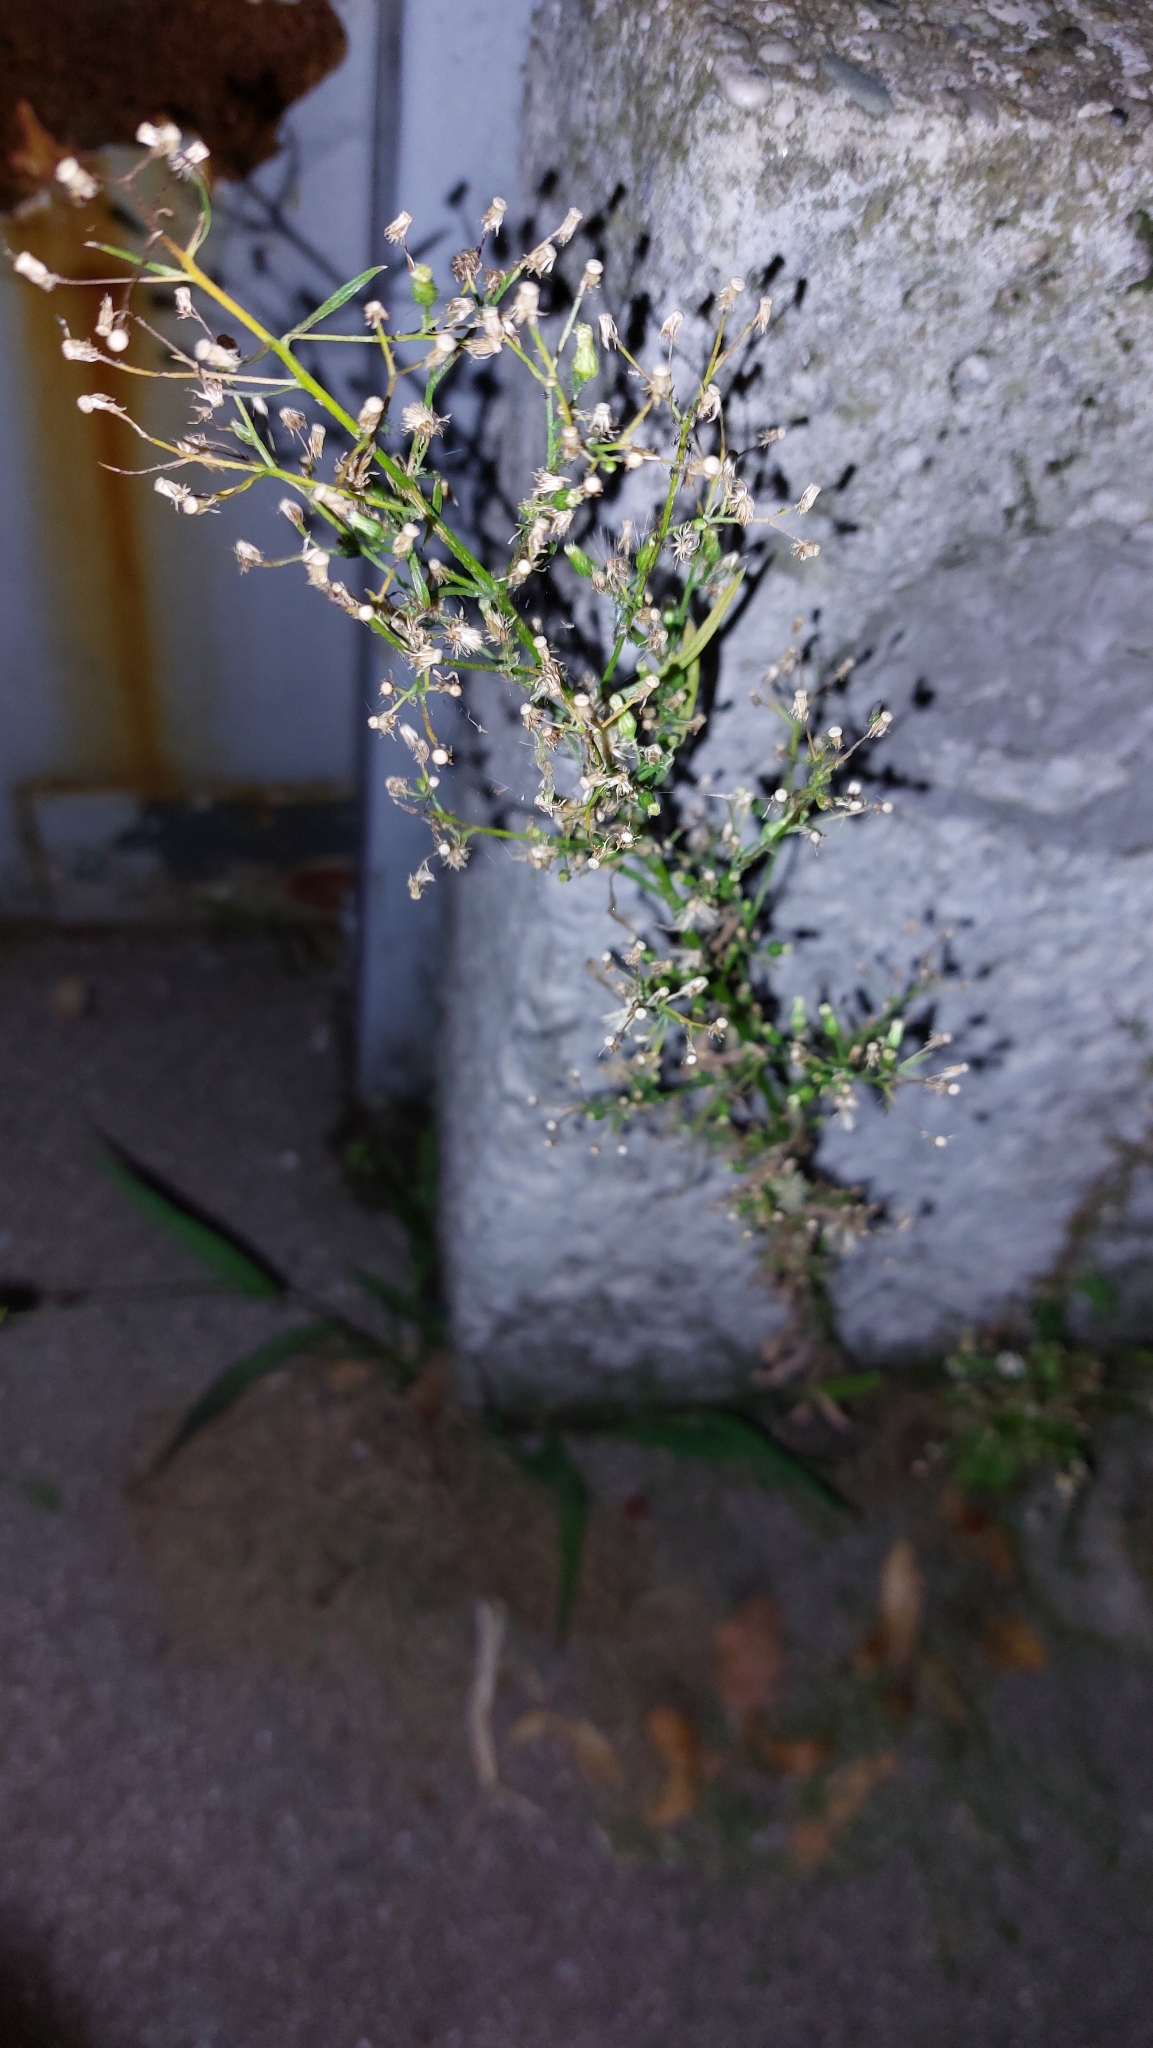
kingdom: Plantae
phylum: Tracheophyta
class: Magnoliopsida
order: Asterales
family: Asteraceae
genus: Erigeron
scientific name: Erigeron canadensis
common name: Canadian fleabane
